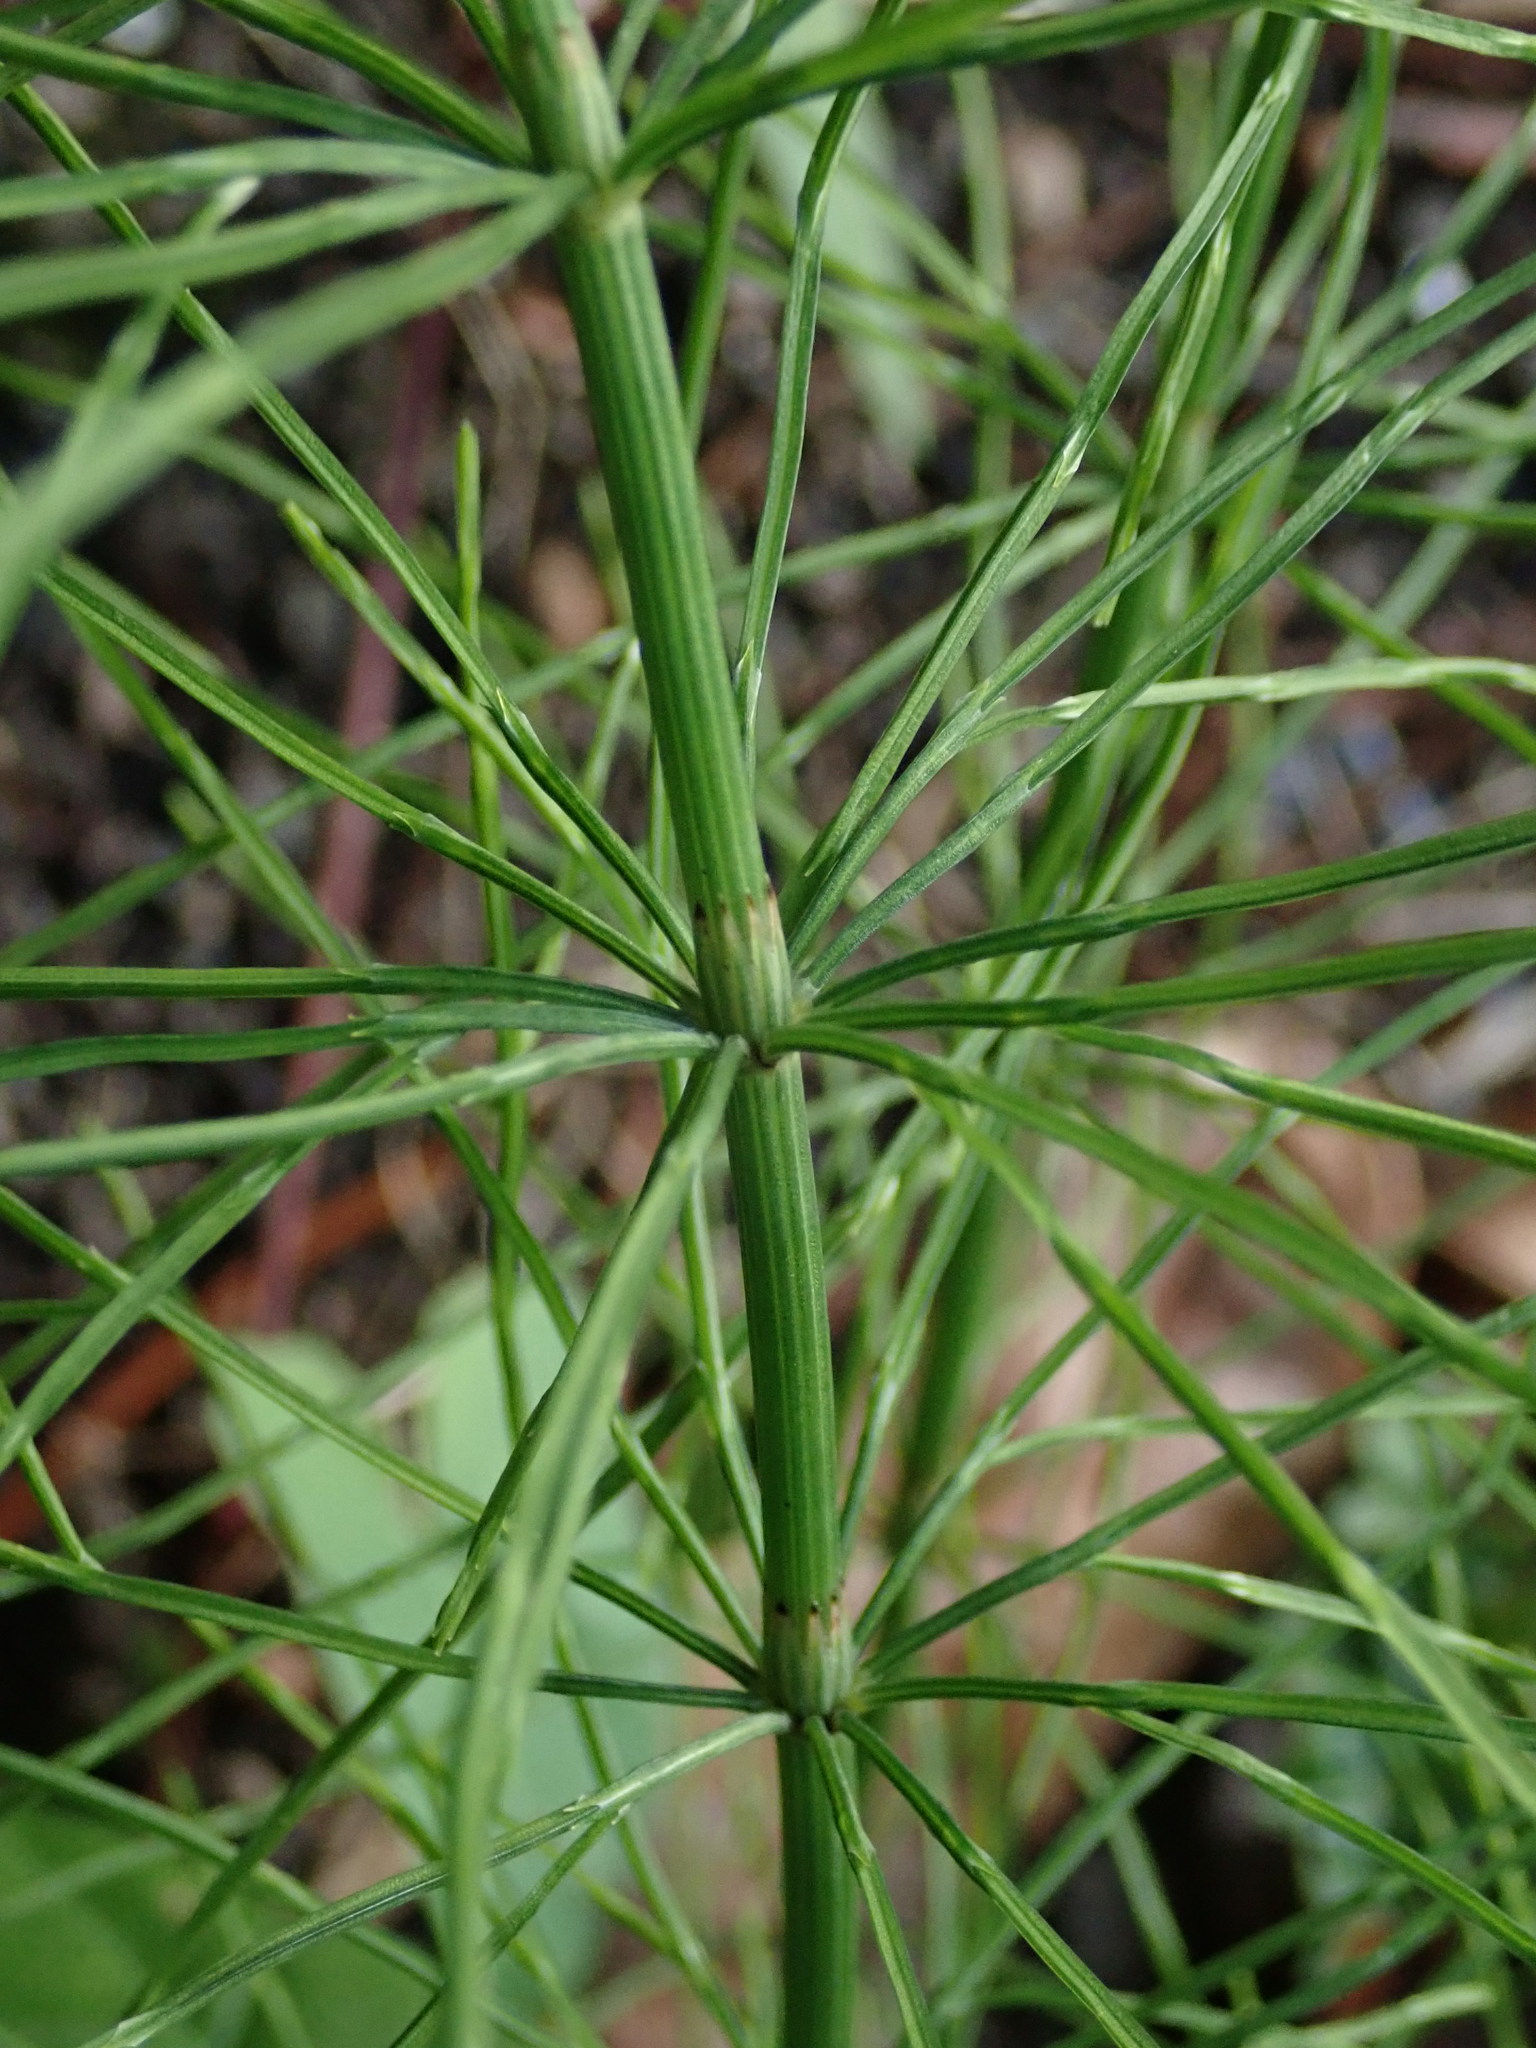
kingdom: Plantae
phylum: Tracheophyta
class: Polypodiopsida
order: Equisetales
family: Equisetaceae
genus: Equisetum
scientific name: Equisetum arvense
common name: Field horsetail
